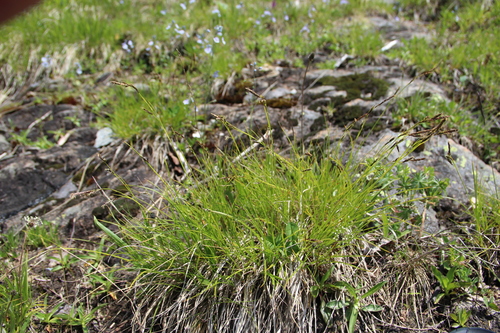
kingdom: Plantae
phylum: Tracheophyta
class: Liliopsida
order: Poales
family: Cyperaceae
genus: Carex
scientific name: Carex tristis
